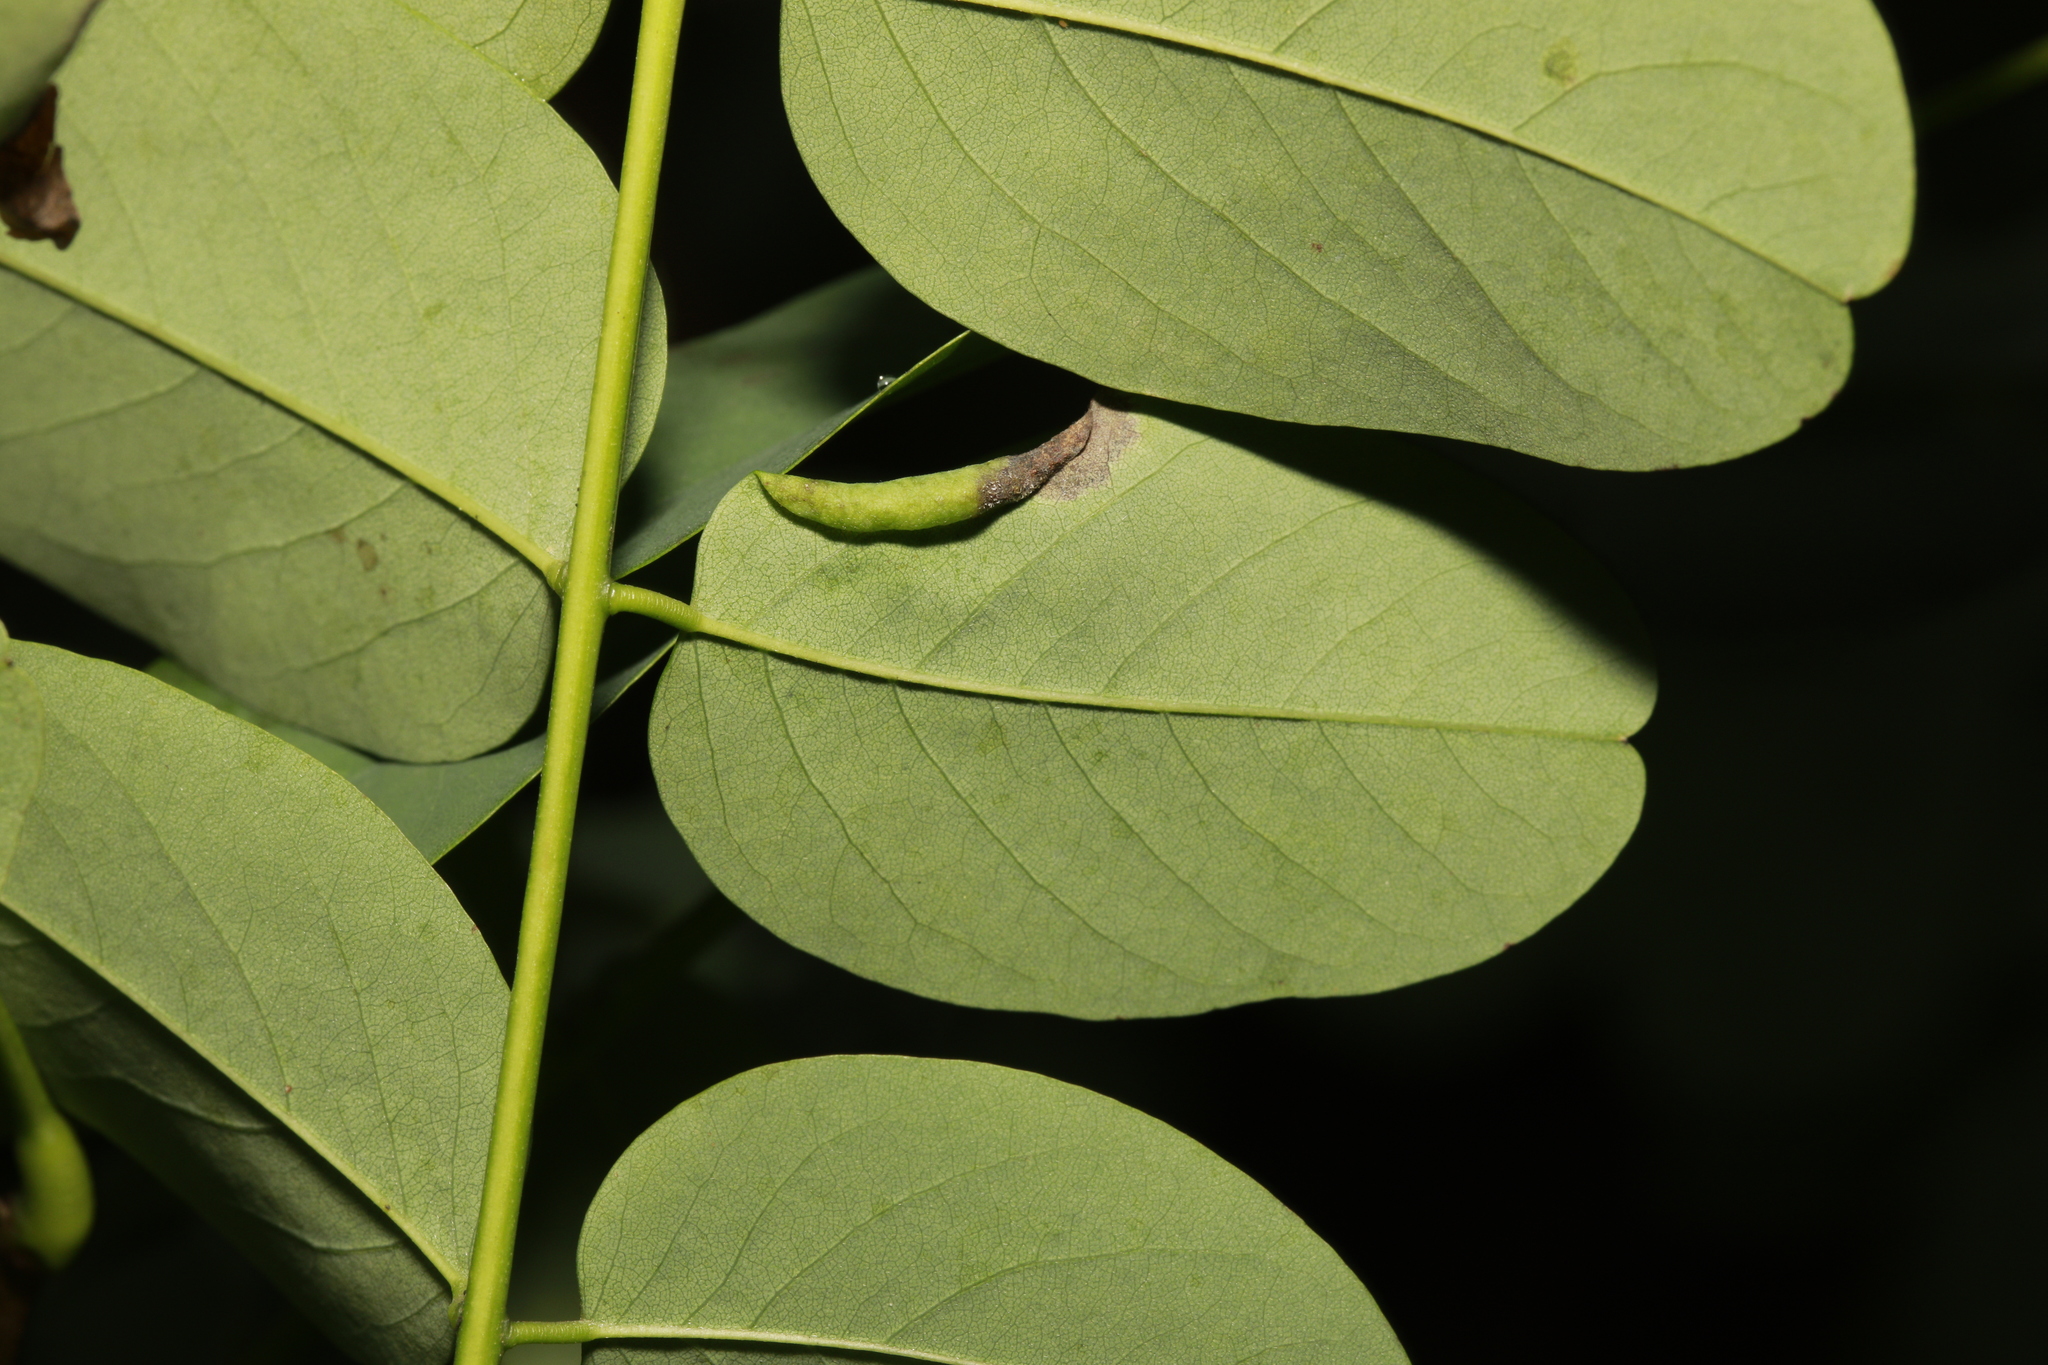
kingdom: Animalia
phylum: Arthropoda
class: Insecta
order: Diptera
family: Cecidomyiidae
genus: Obolodiplosis
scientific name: Obolodiplosis robiniae
